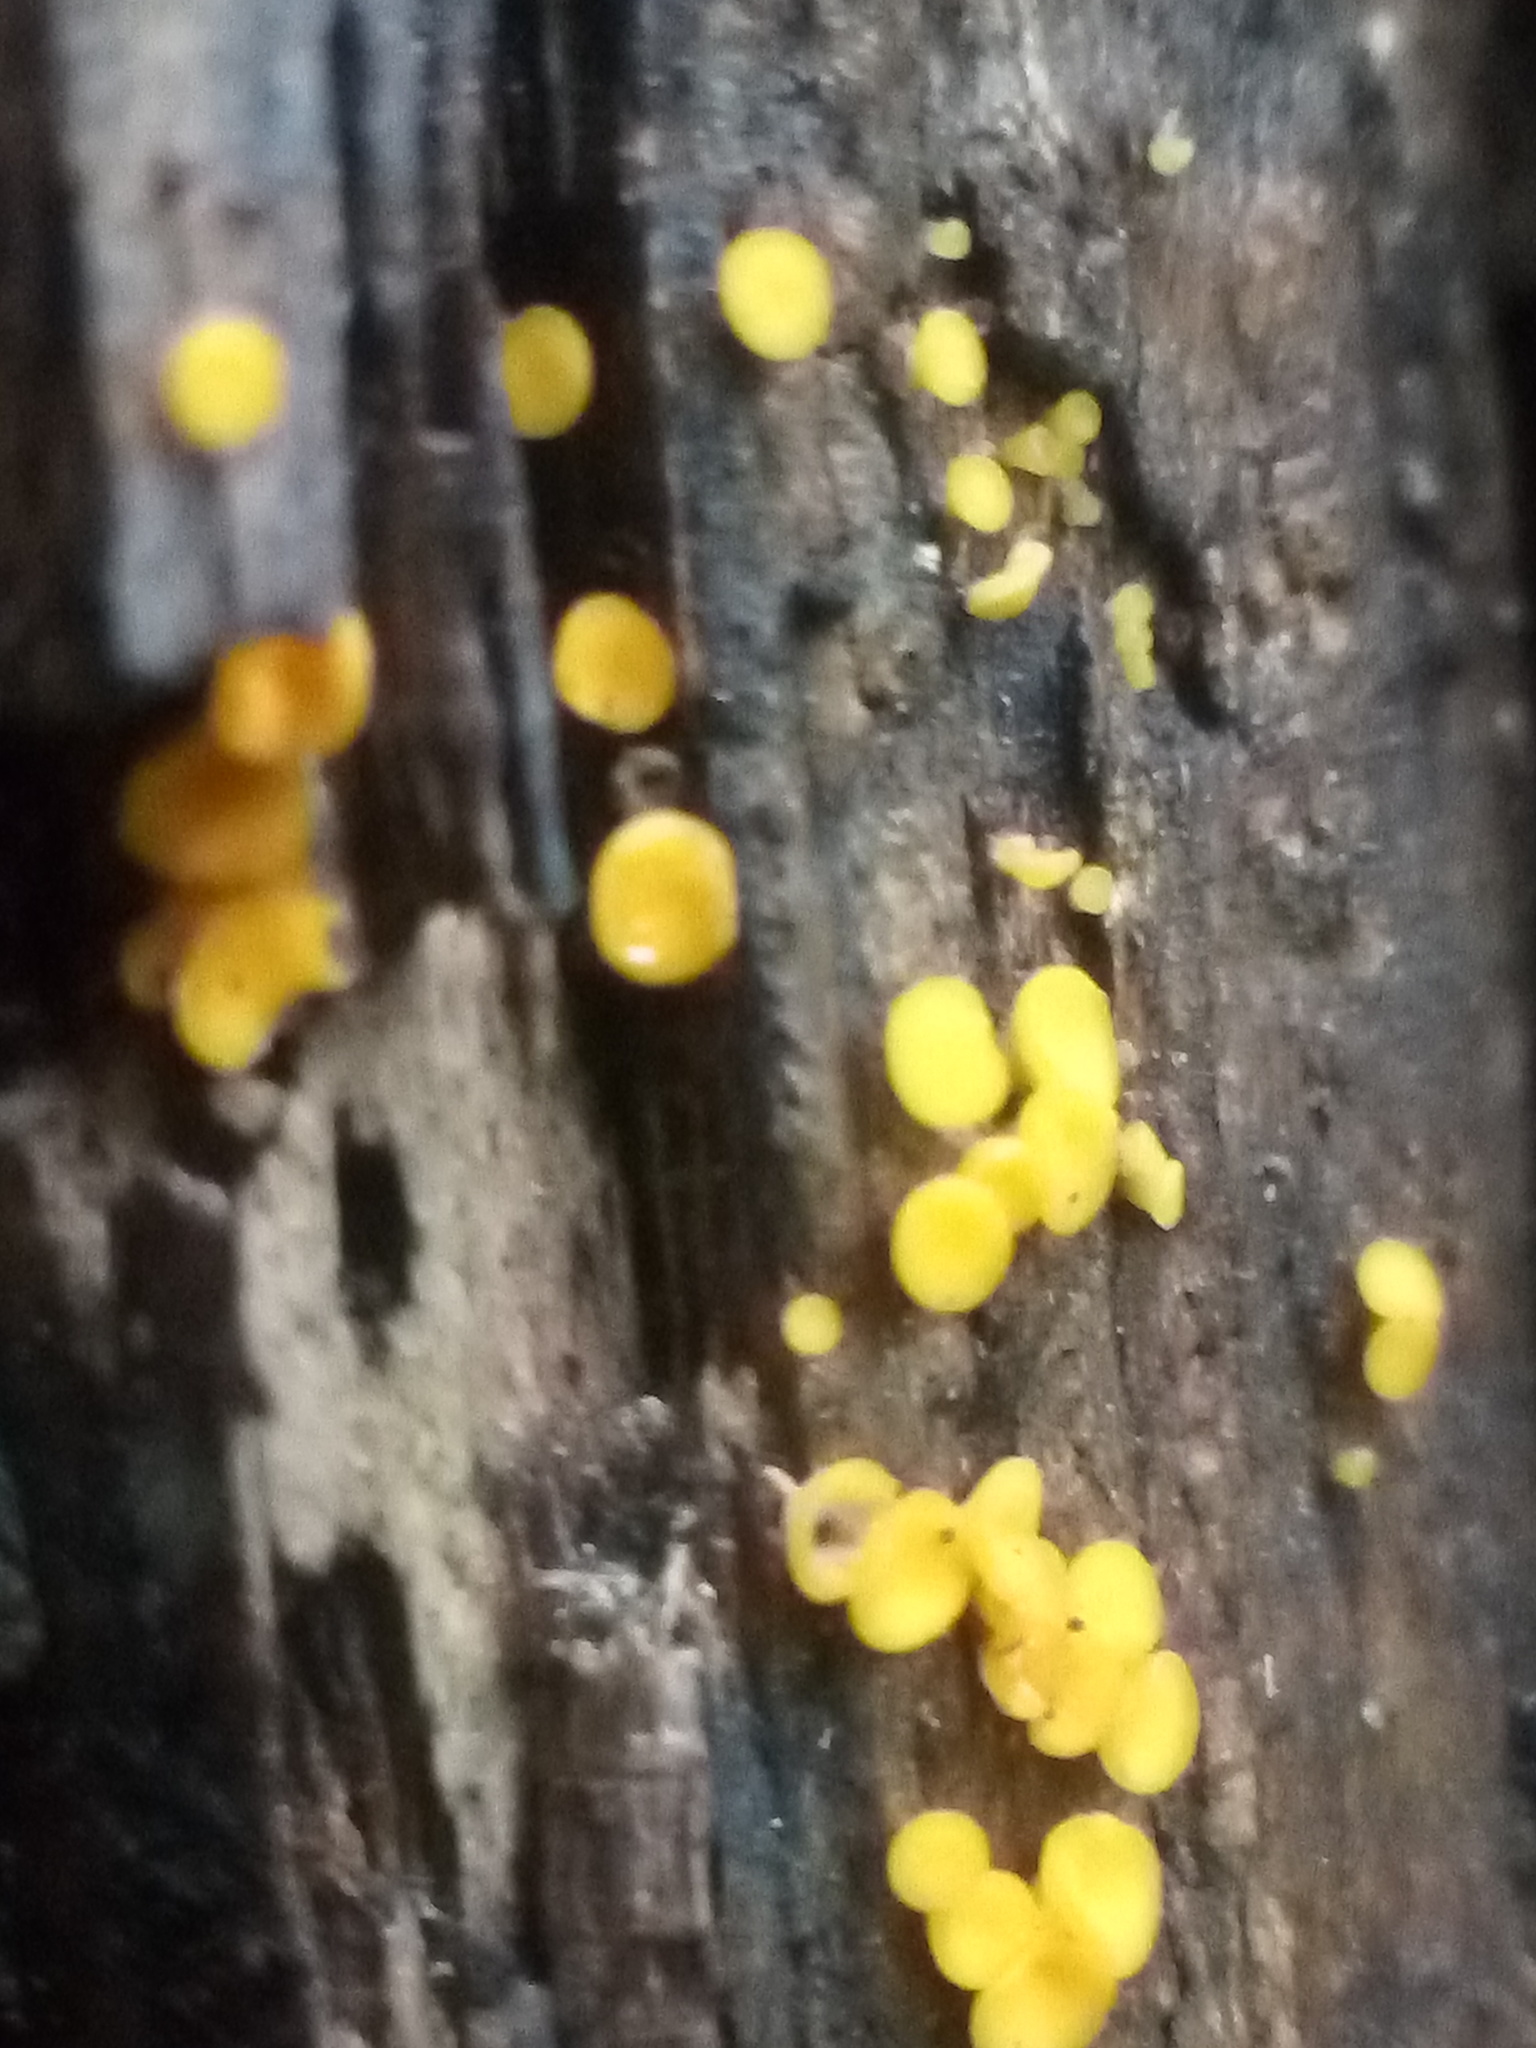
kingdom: Fungi
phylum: Ascomycota
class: Leotiomycetes
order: Helotiales
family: Pezizellaceae
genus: Calycina
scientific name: Calycina citrina
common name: Yellow fairy cups
